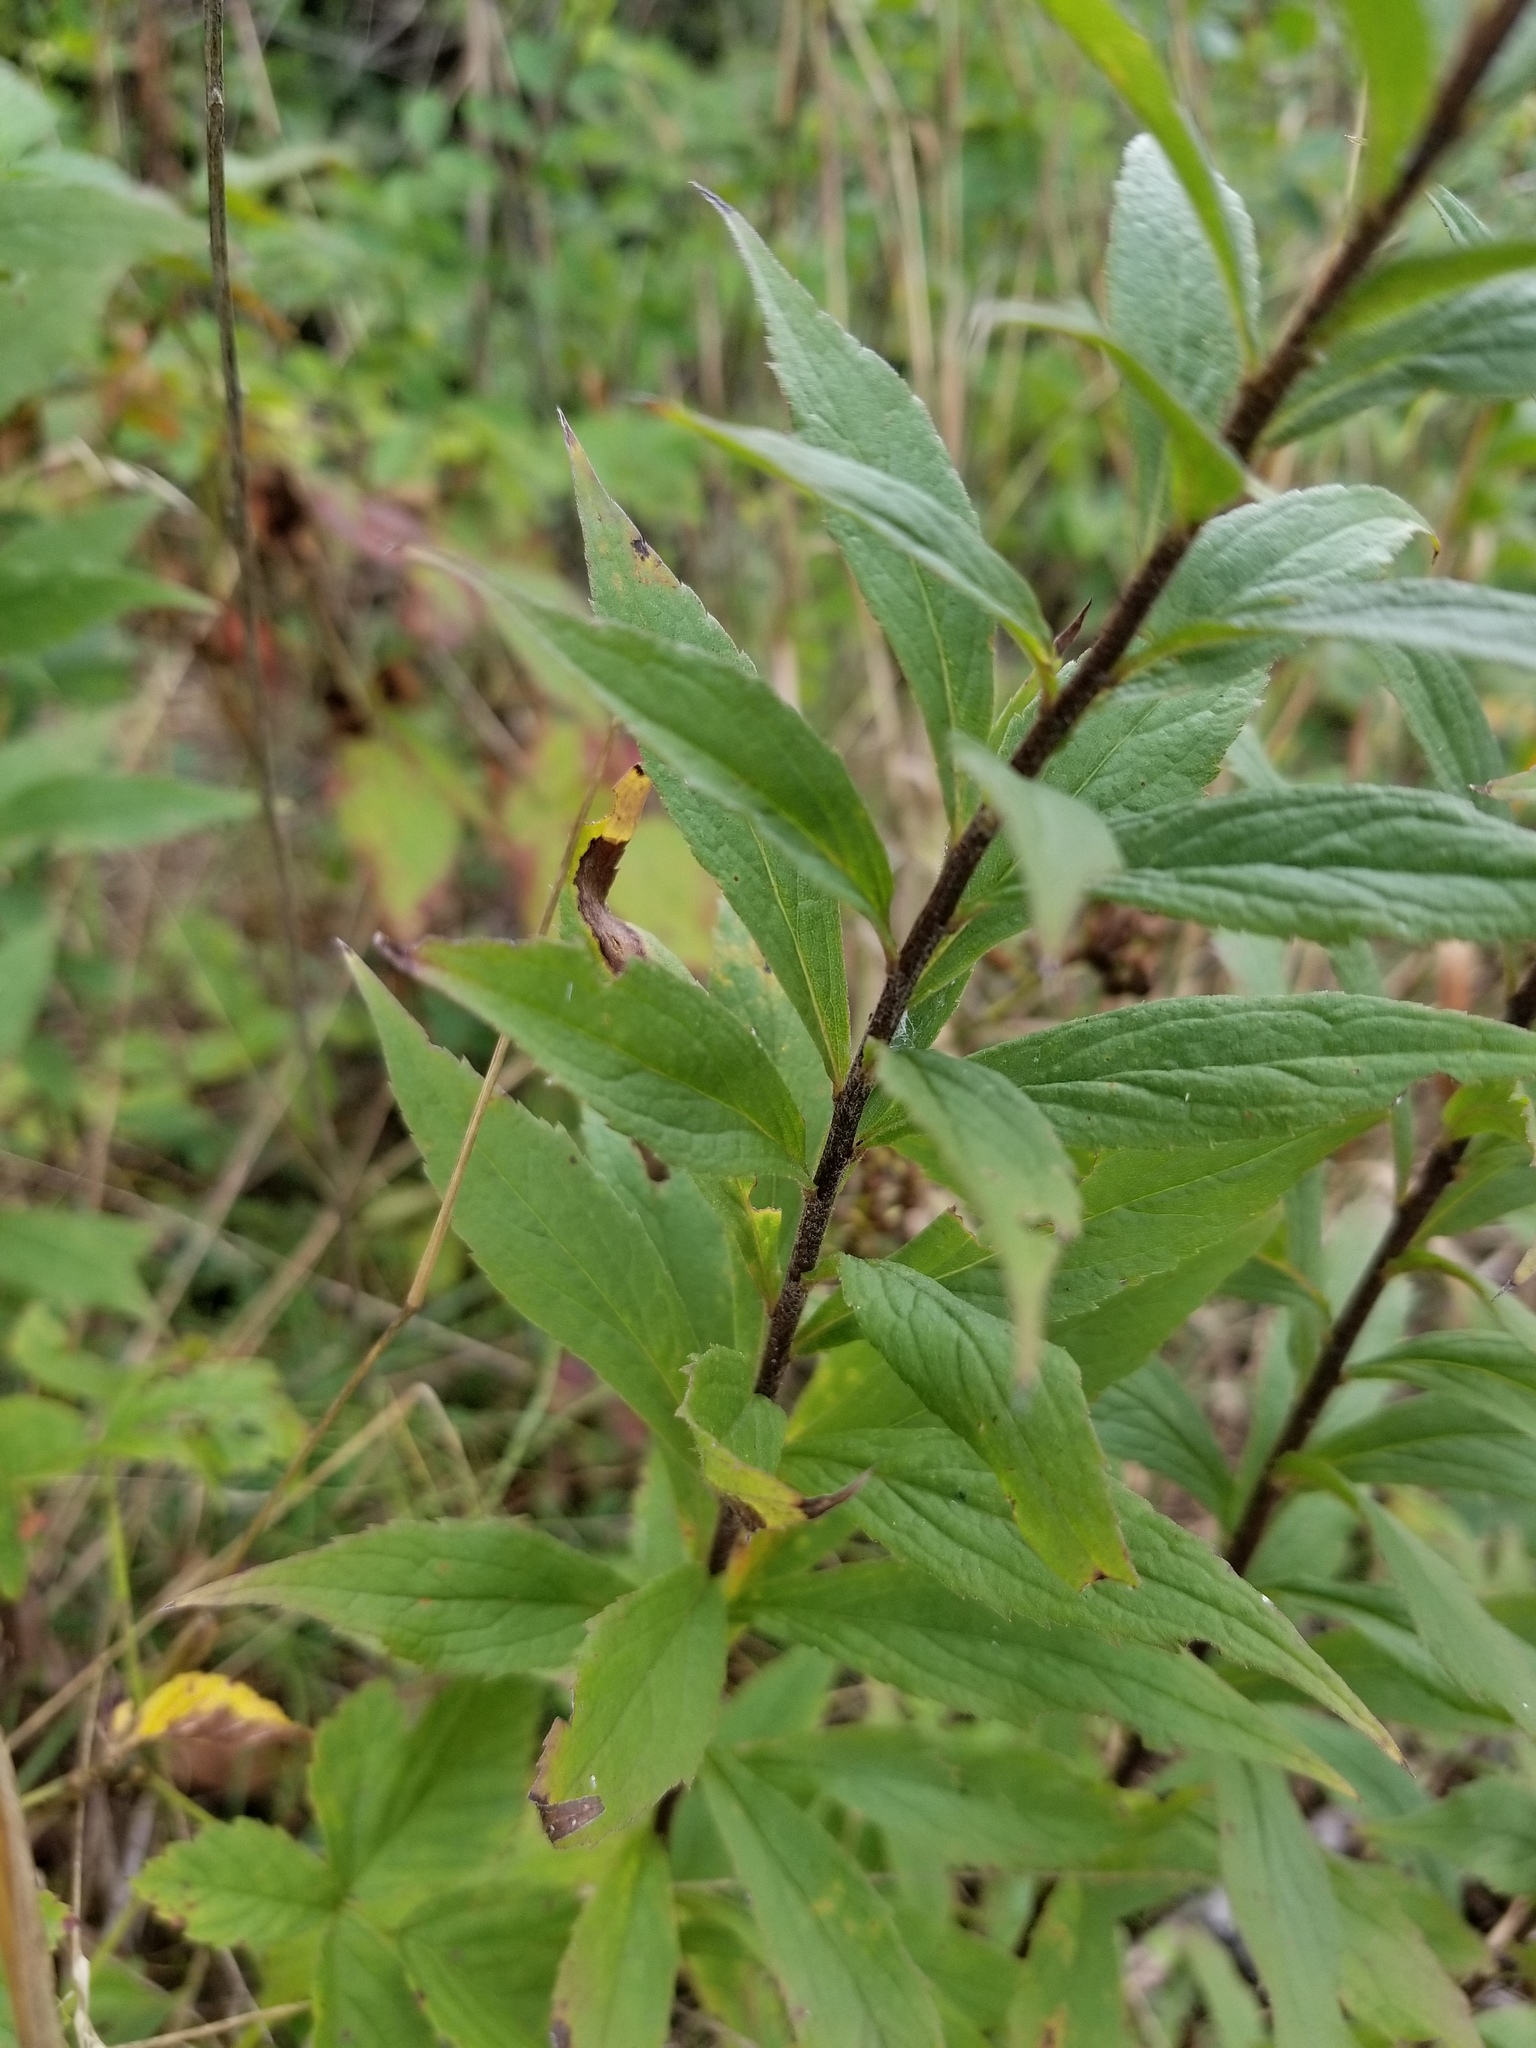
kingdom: Plantae
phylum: Tracheophyta
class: Magnoliopsida
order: Asterales
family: Asteraceae
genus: Solidago
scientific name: Solidago rugosa
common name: Rough-stemmed goldenrod
